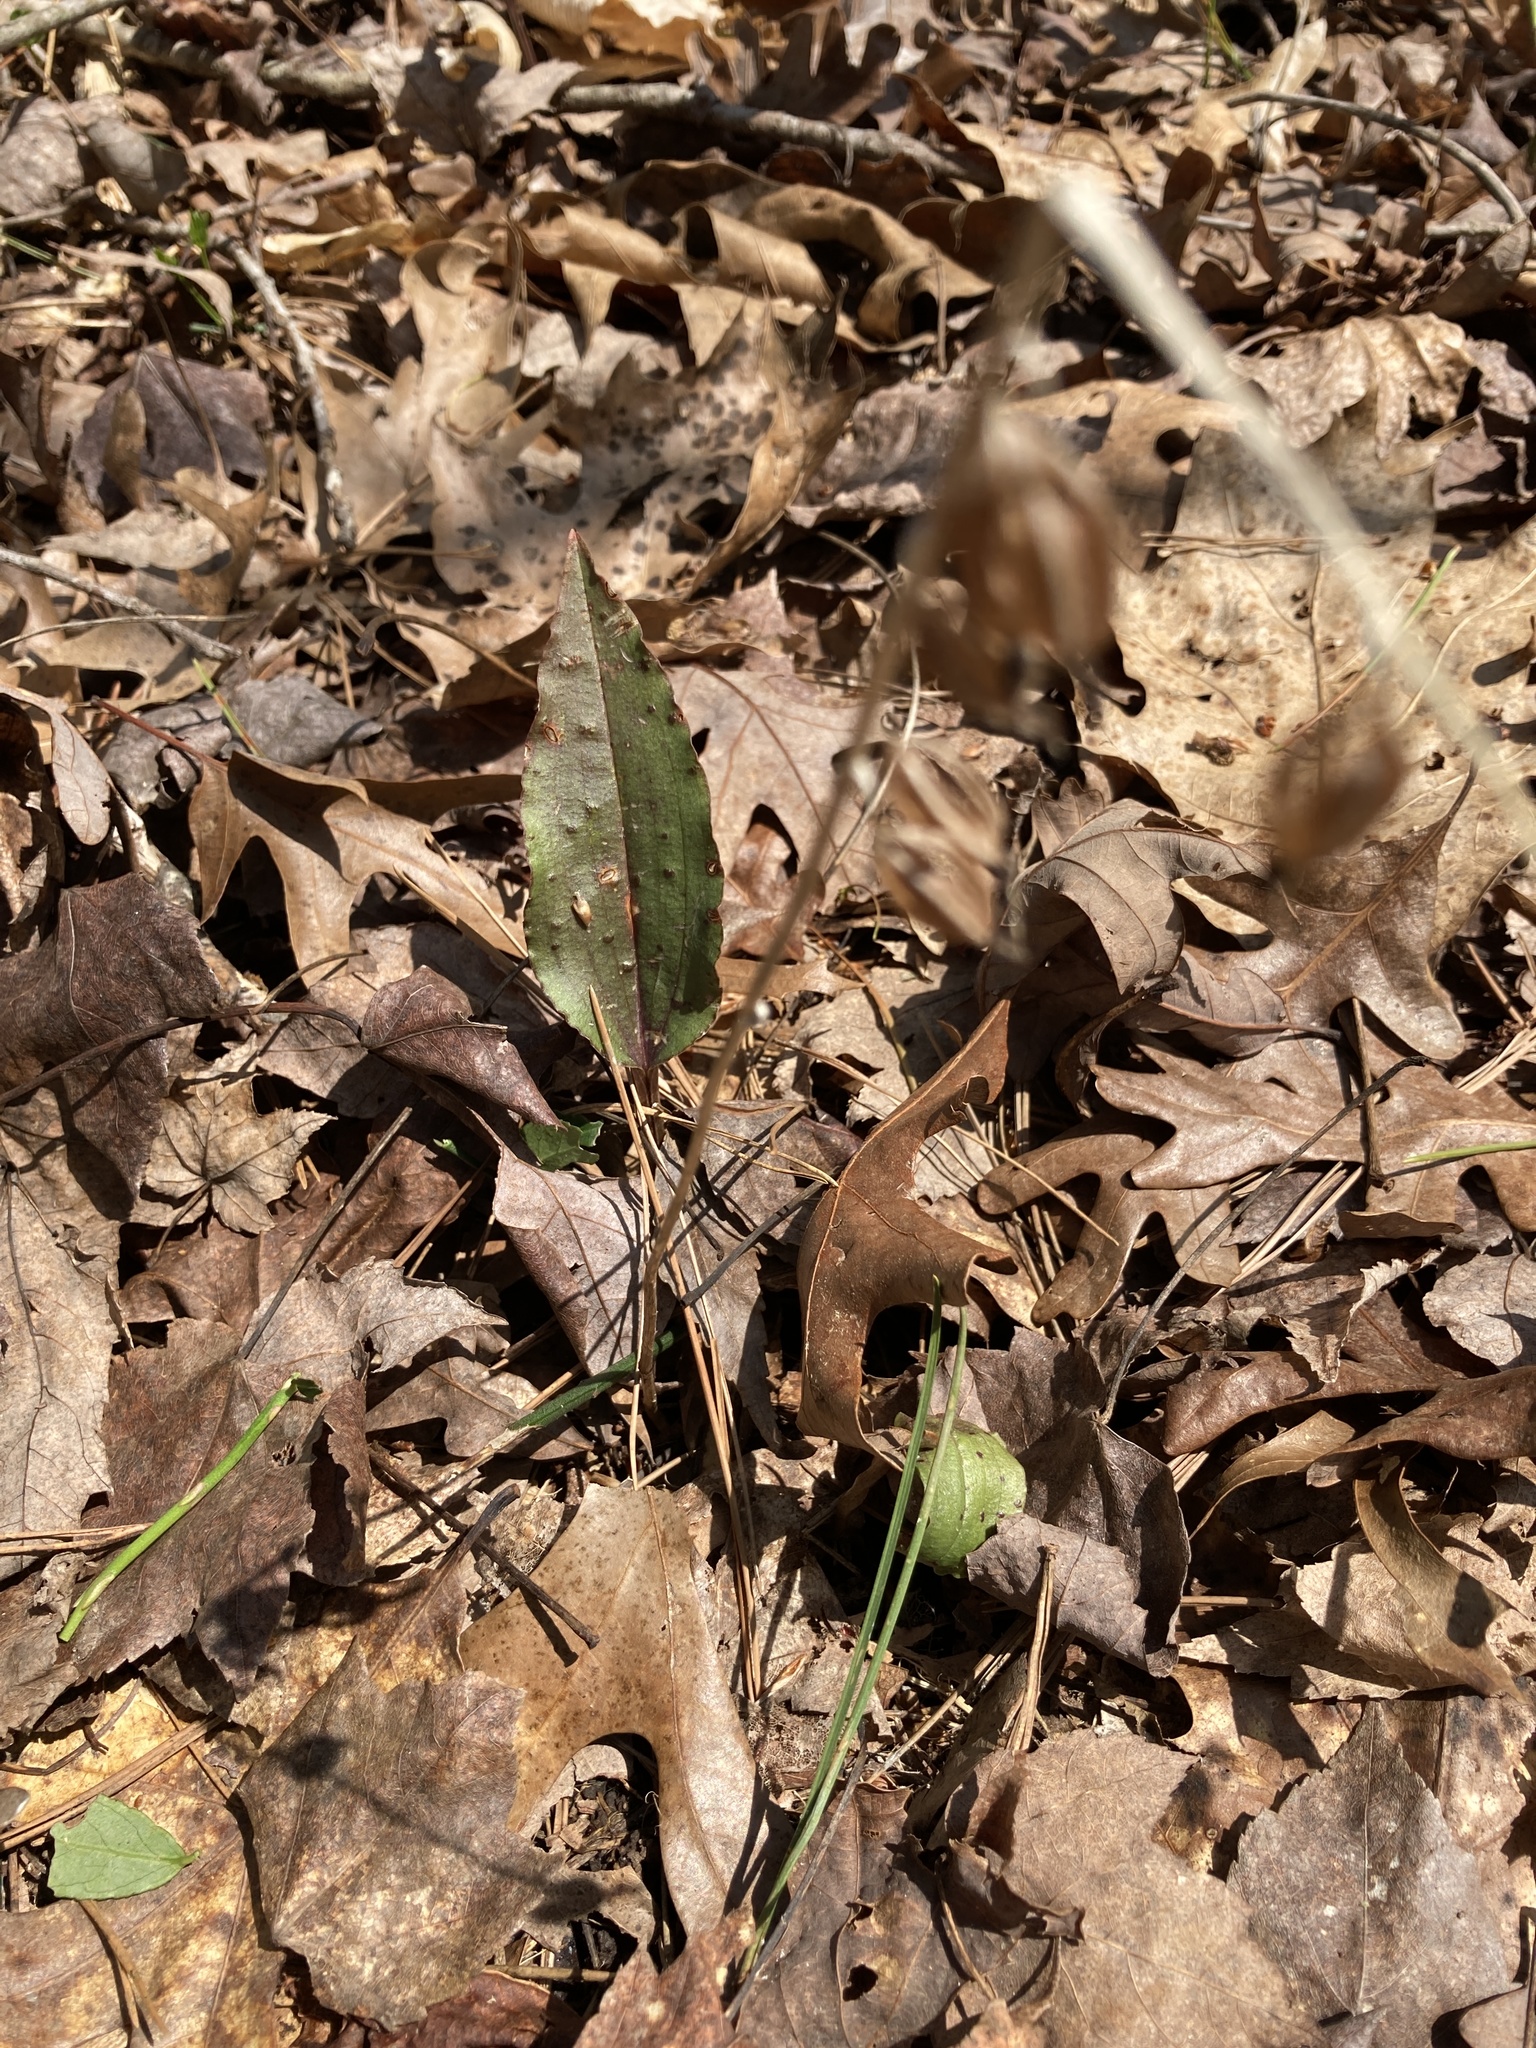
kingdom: Plantae
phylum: Tracheophyta
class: Liliopsida
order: Asparagales
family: Orchidaceae
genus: Tipularia
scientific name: Tipularia discolor
